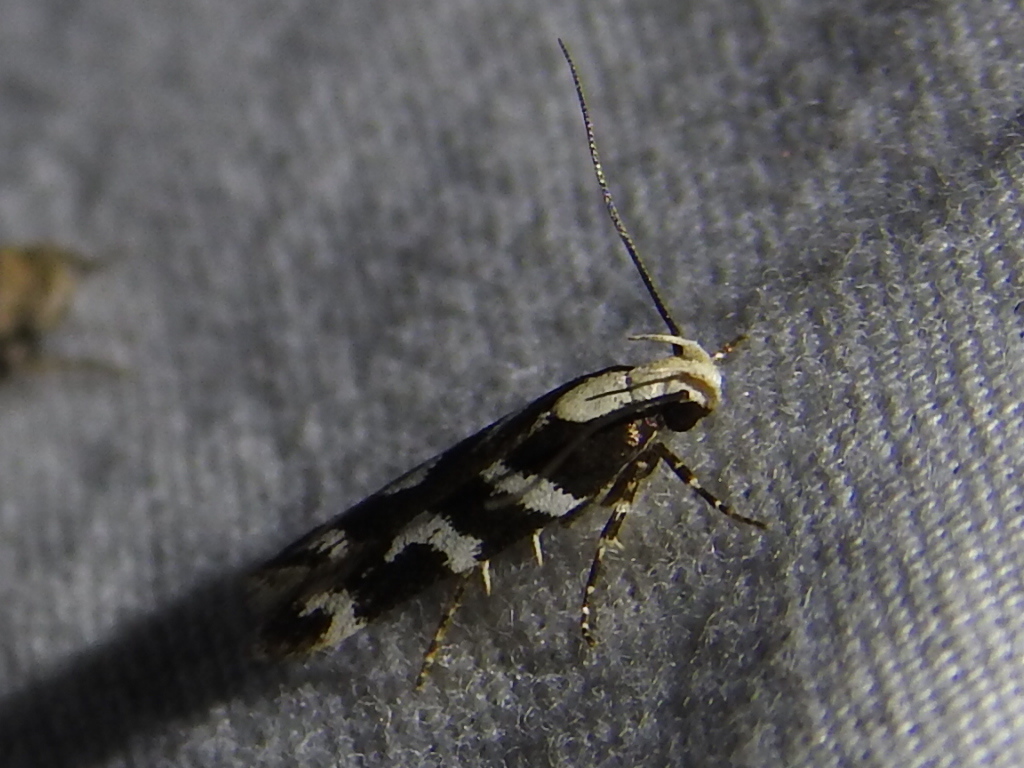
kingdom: Animalia
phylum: Arthropoda
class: Insecta
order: Lepidoptera
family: Gelechiidae
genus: Filatima
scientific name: Filatima albilorella
